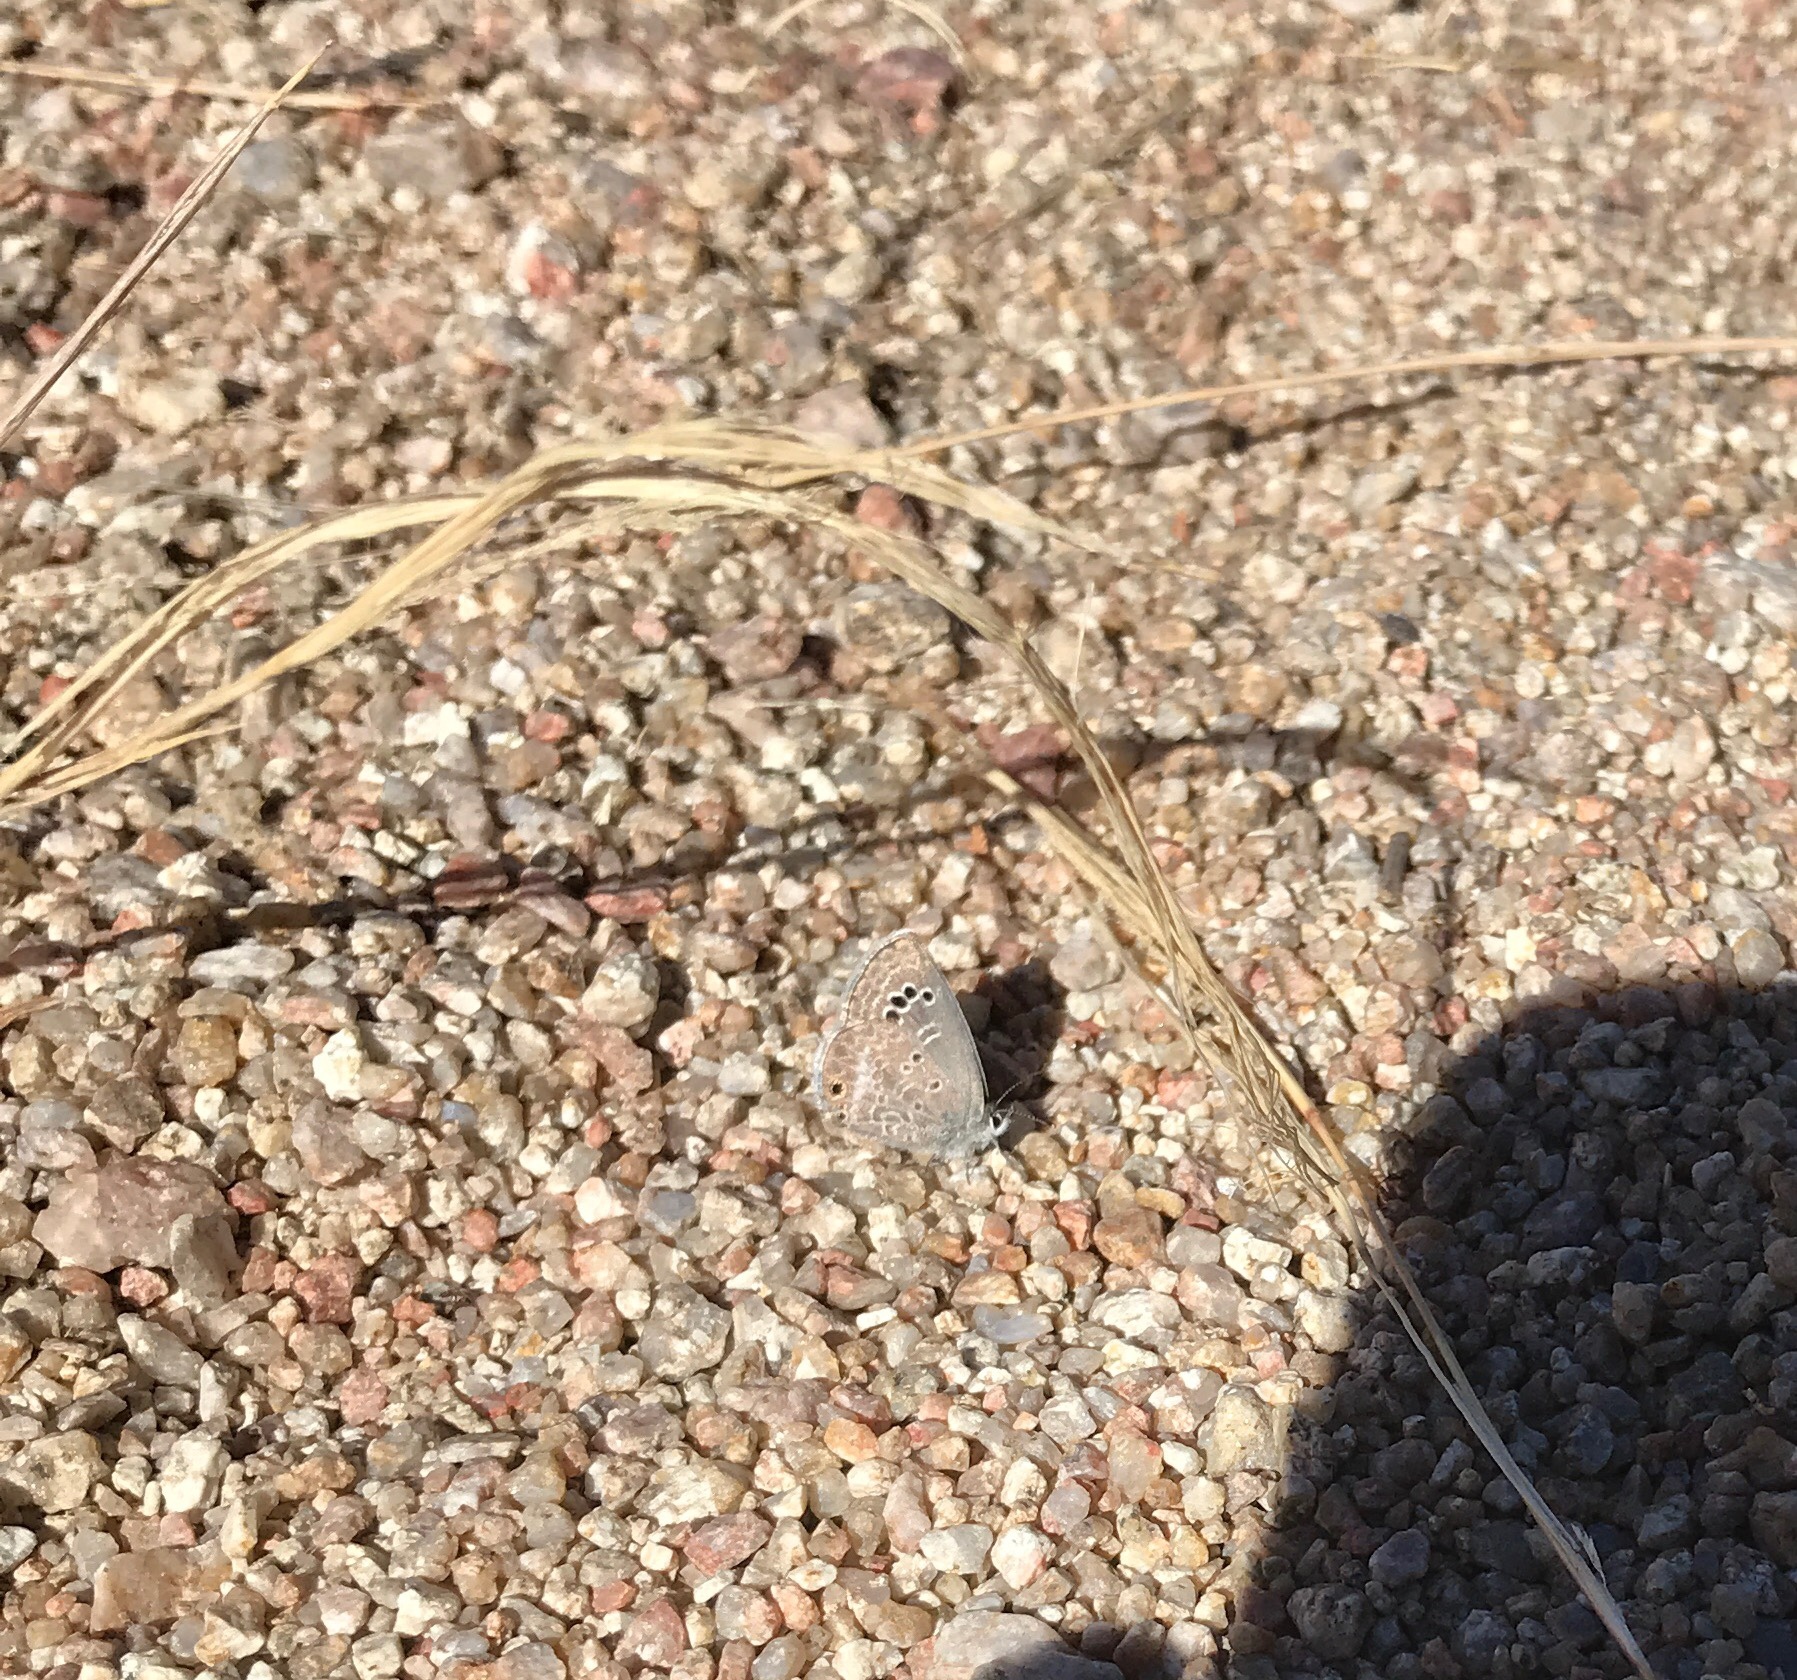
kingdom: Animalia
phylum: Arthropoda
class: Insecta
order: Lepidoptera
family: Lycaenidae
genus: Echinargus
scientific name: Echinargus isola
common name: Reakirt's blue
